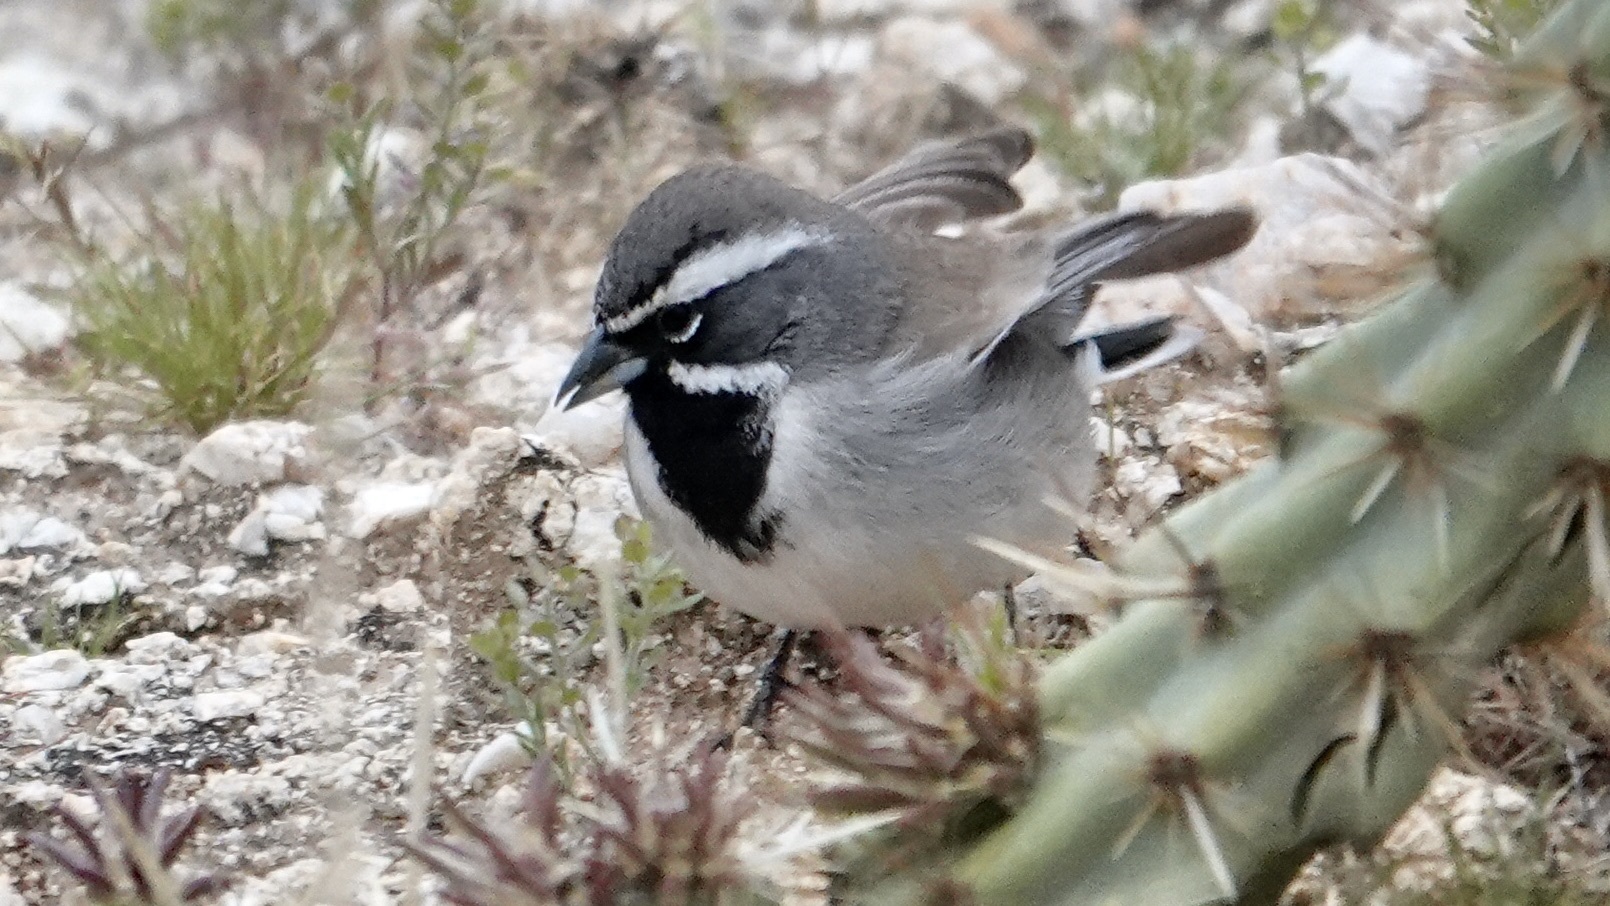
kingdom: Animalia
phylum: Chordata
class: Aves
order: Passeriformes
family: Passerellidae
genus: Amphispiza
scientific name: Amphispiza bilineata
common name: Black-throated sparrow
